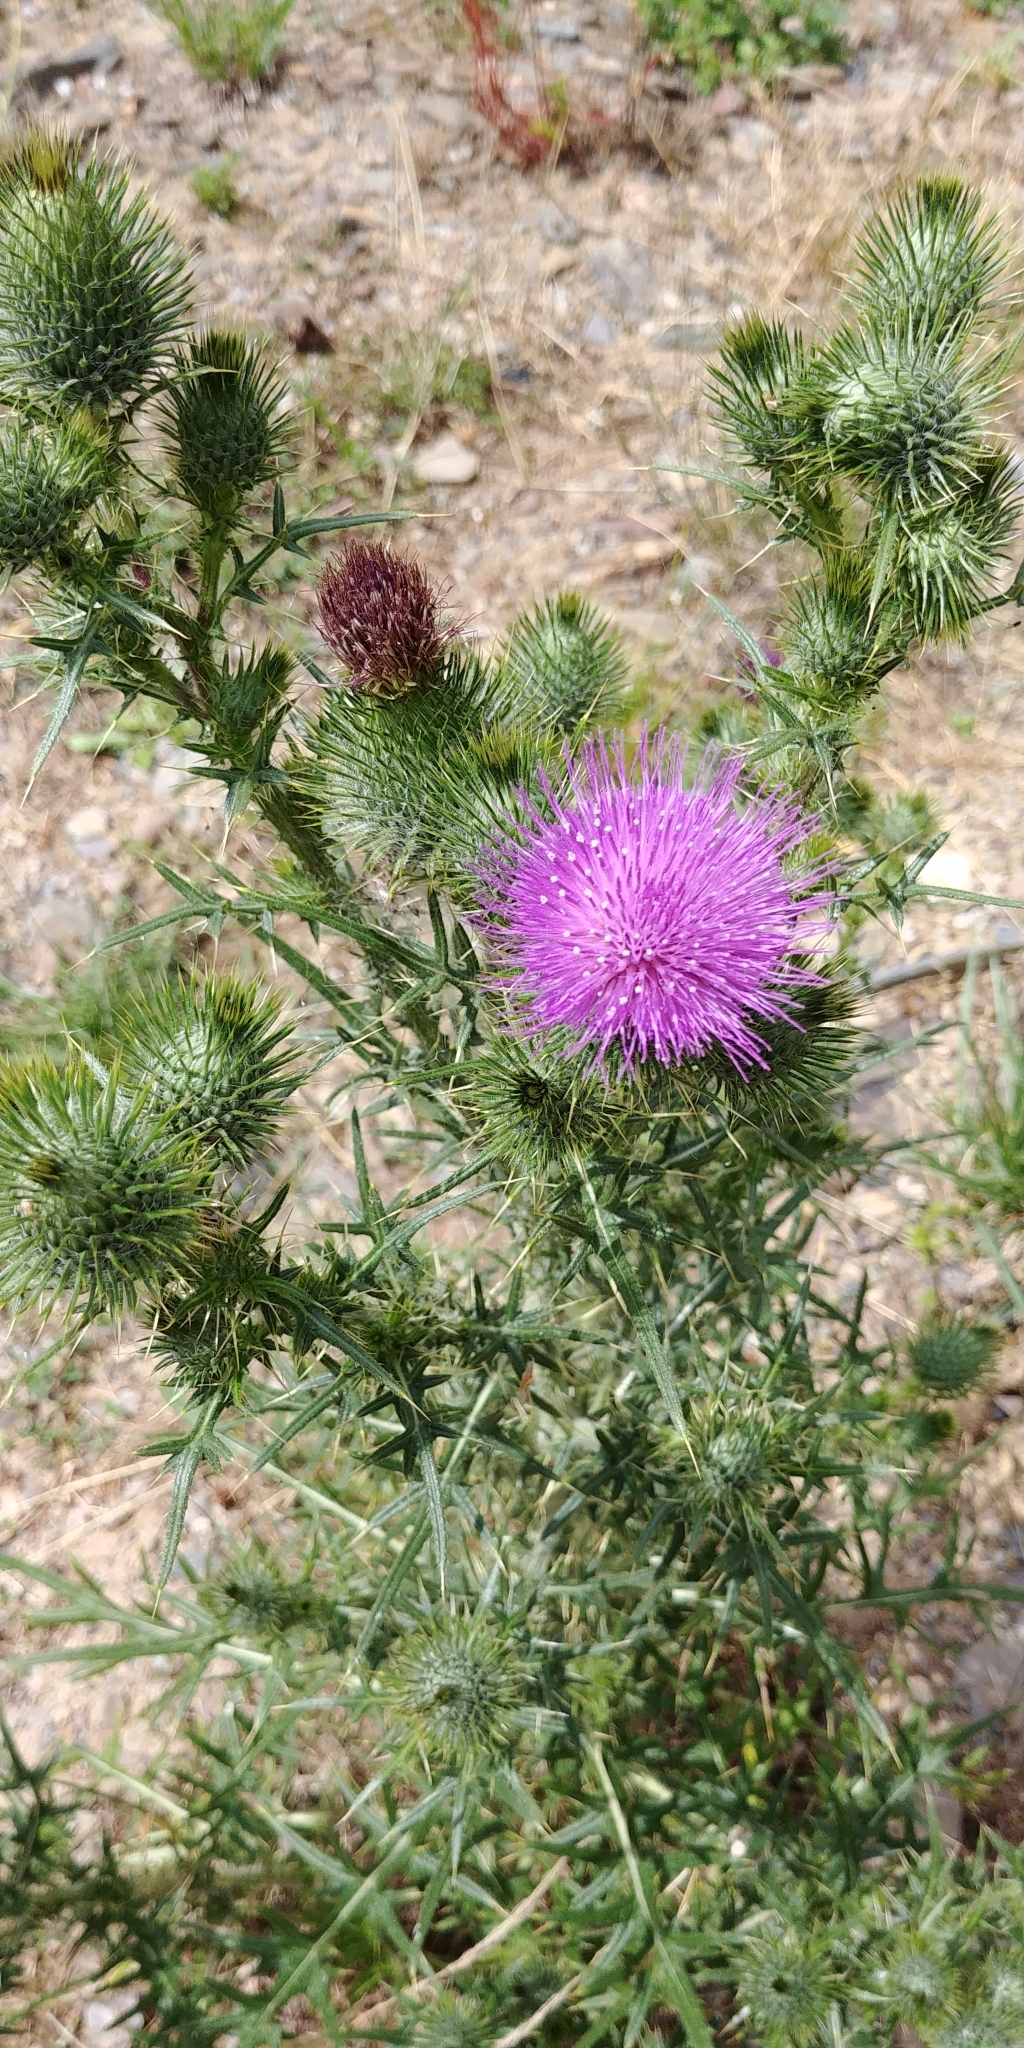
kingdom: Plantae
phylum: Tracheophyta
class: Magnoliopsida
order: Asterales
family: Asteraceae
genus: Cirsium
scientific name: Cirsium vulgare
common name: Bull thistle
